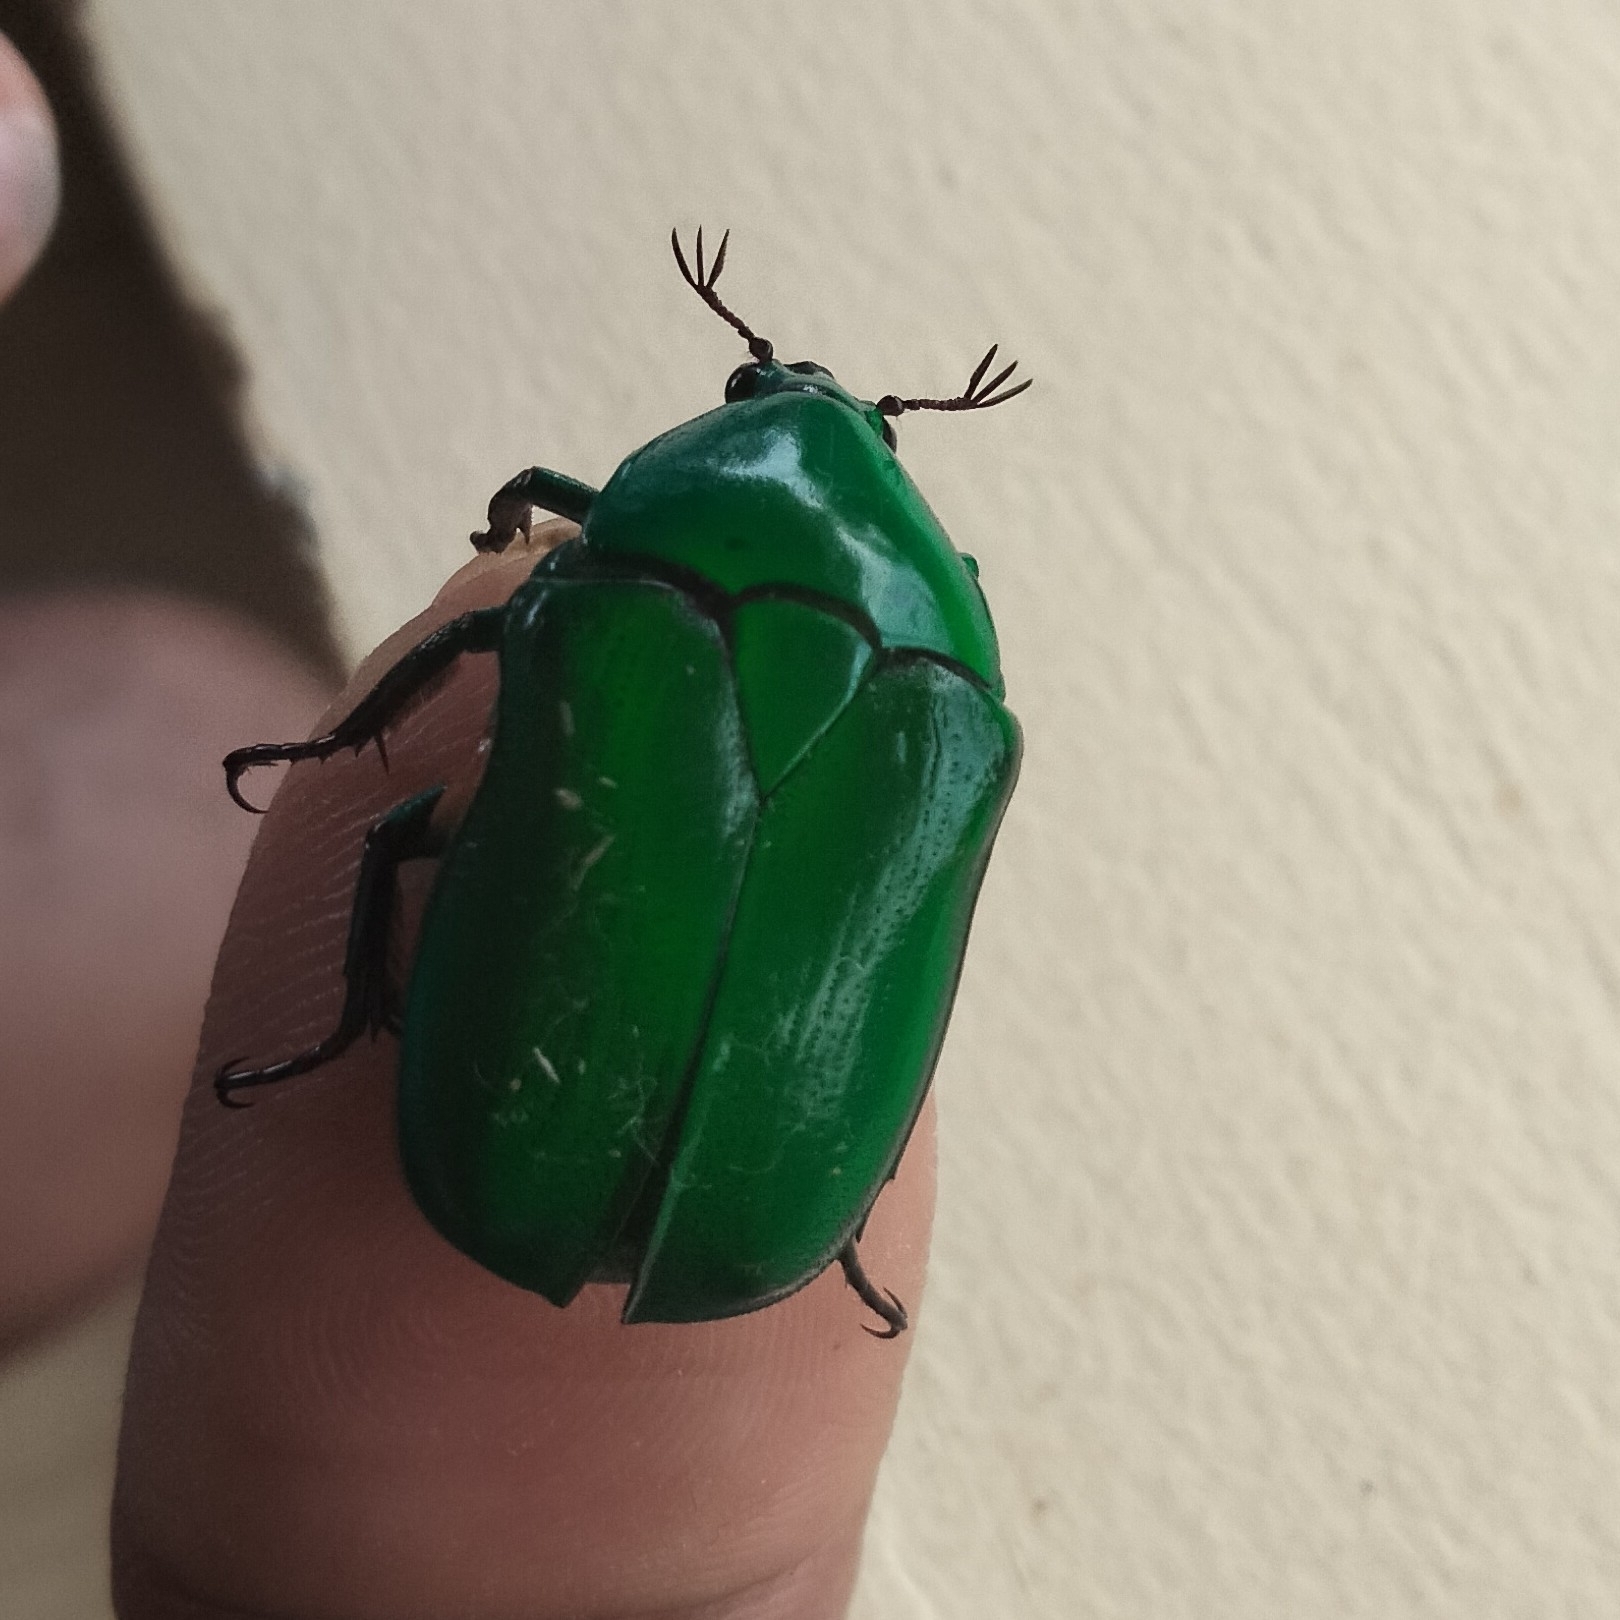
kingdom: Animalia
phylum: Arthropoda
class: Insecta
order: Coleoptera
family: Scarabaeidae
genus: Ptychodesthes
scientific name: Ptychodesthes Heterorrhina elegans
